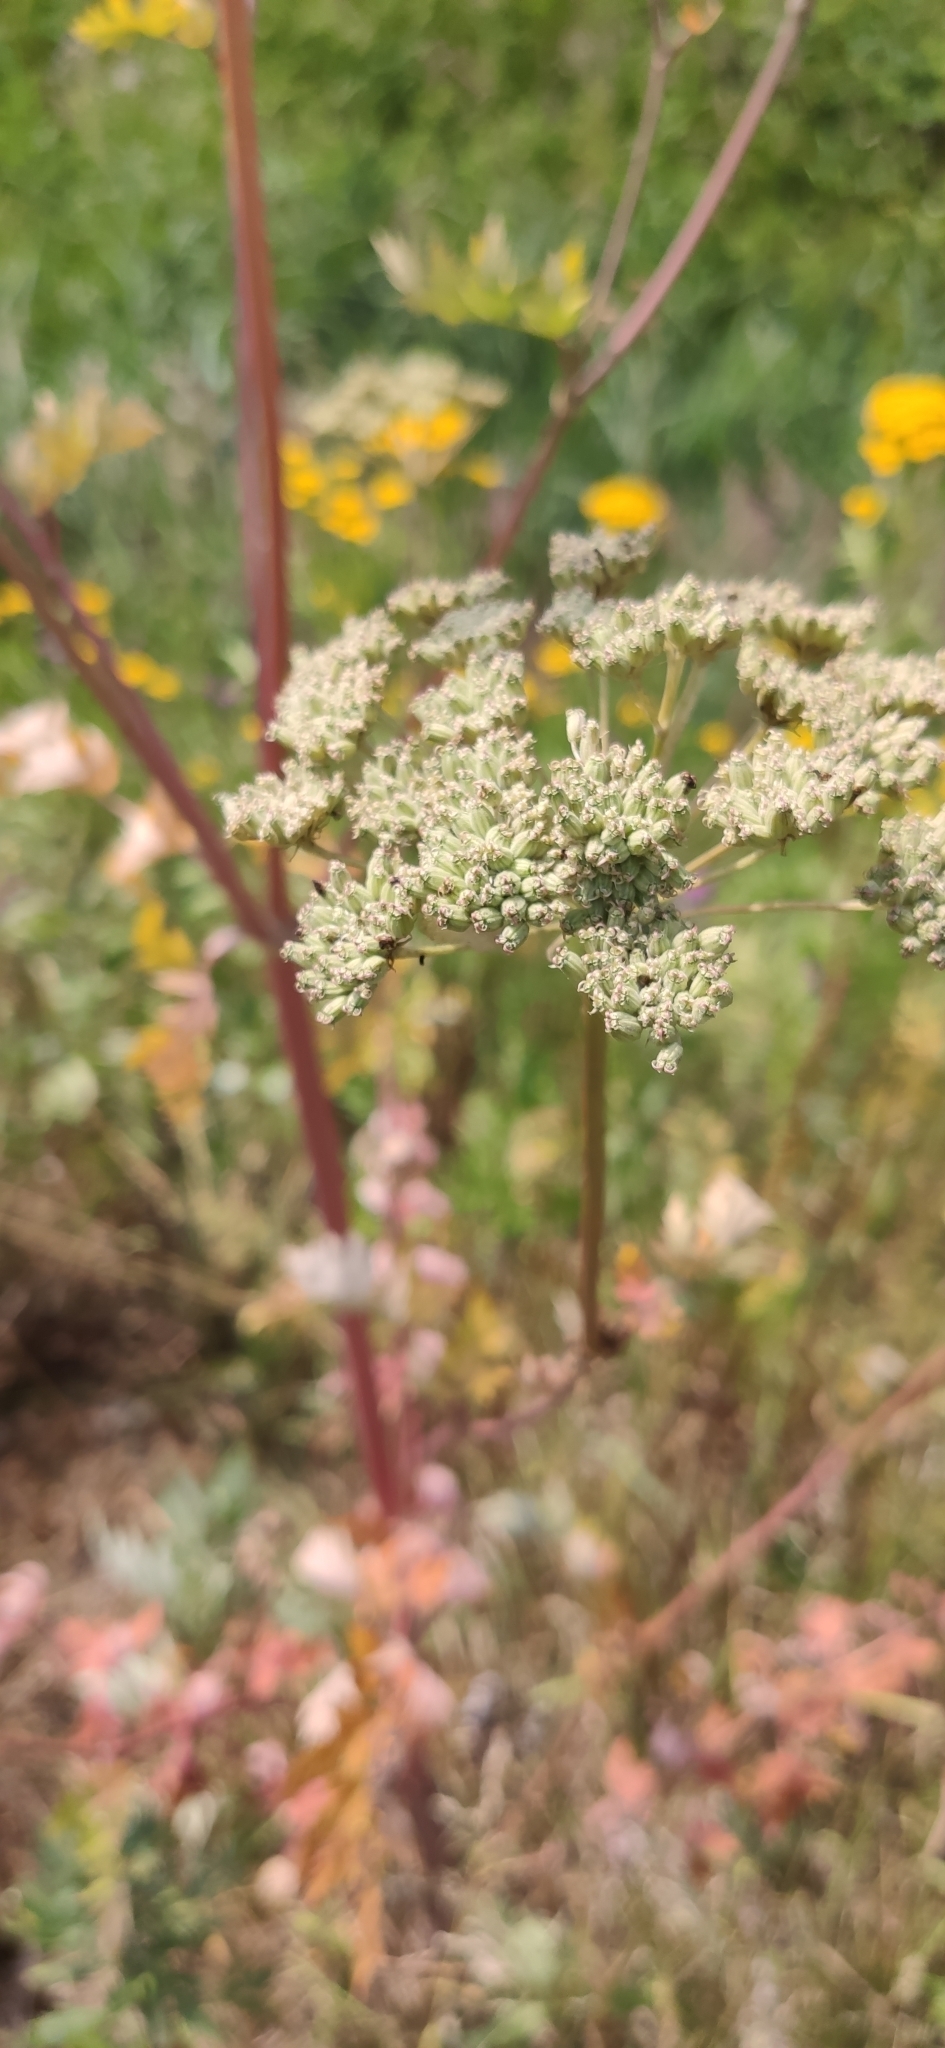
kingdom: Plantae
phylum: Tracheophyta
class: Magnoliopsida
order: Apiales
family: Apiaceae
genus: Seseli
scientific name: Seseli libanotis
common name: Mooncarrot
